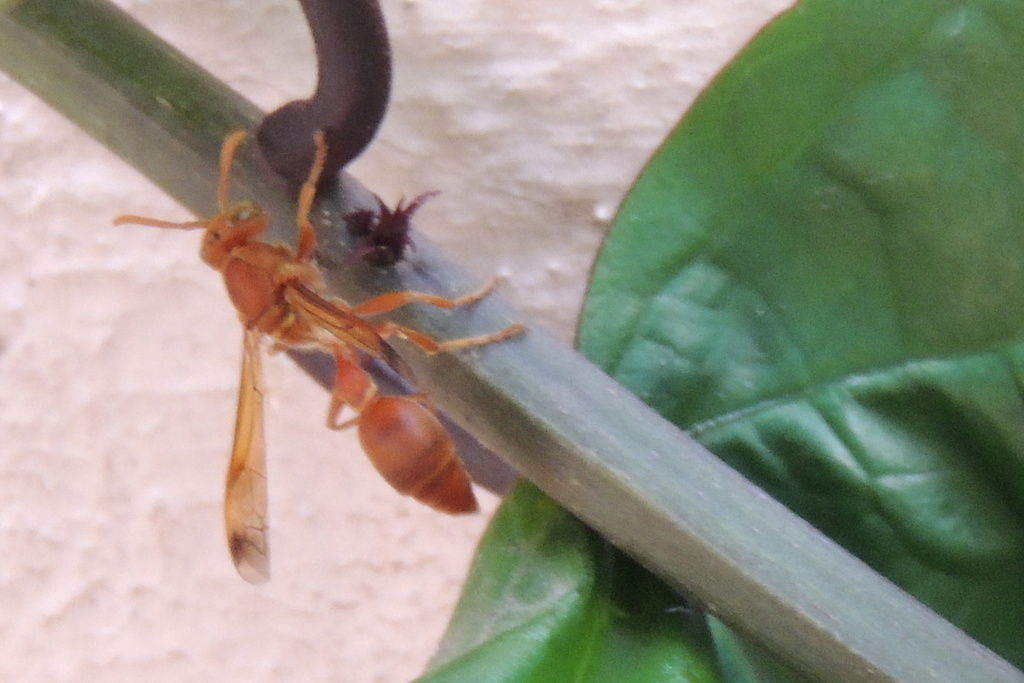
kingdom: Animalia
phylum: Arthropoda
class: Insecta
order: Hymenoptera
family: Vespidae
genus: Ropalidia
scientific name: Ropalidia marginata
